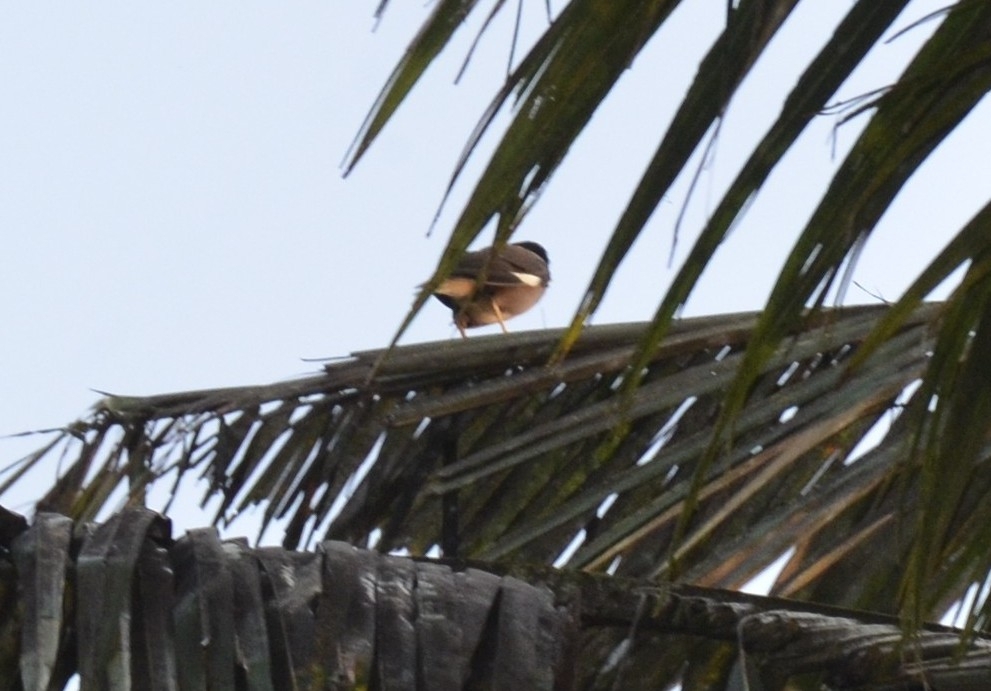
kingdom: Animalia
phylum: Chordata
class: Aves
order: Passeriformes
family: Sturnidae
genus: Acridotheres
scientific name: Acridotheres tristis
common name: Common myna
